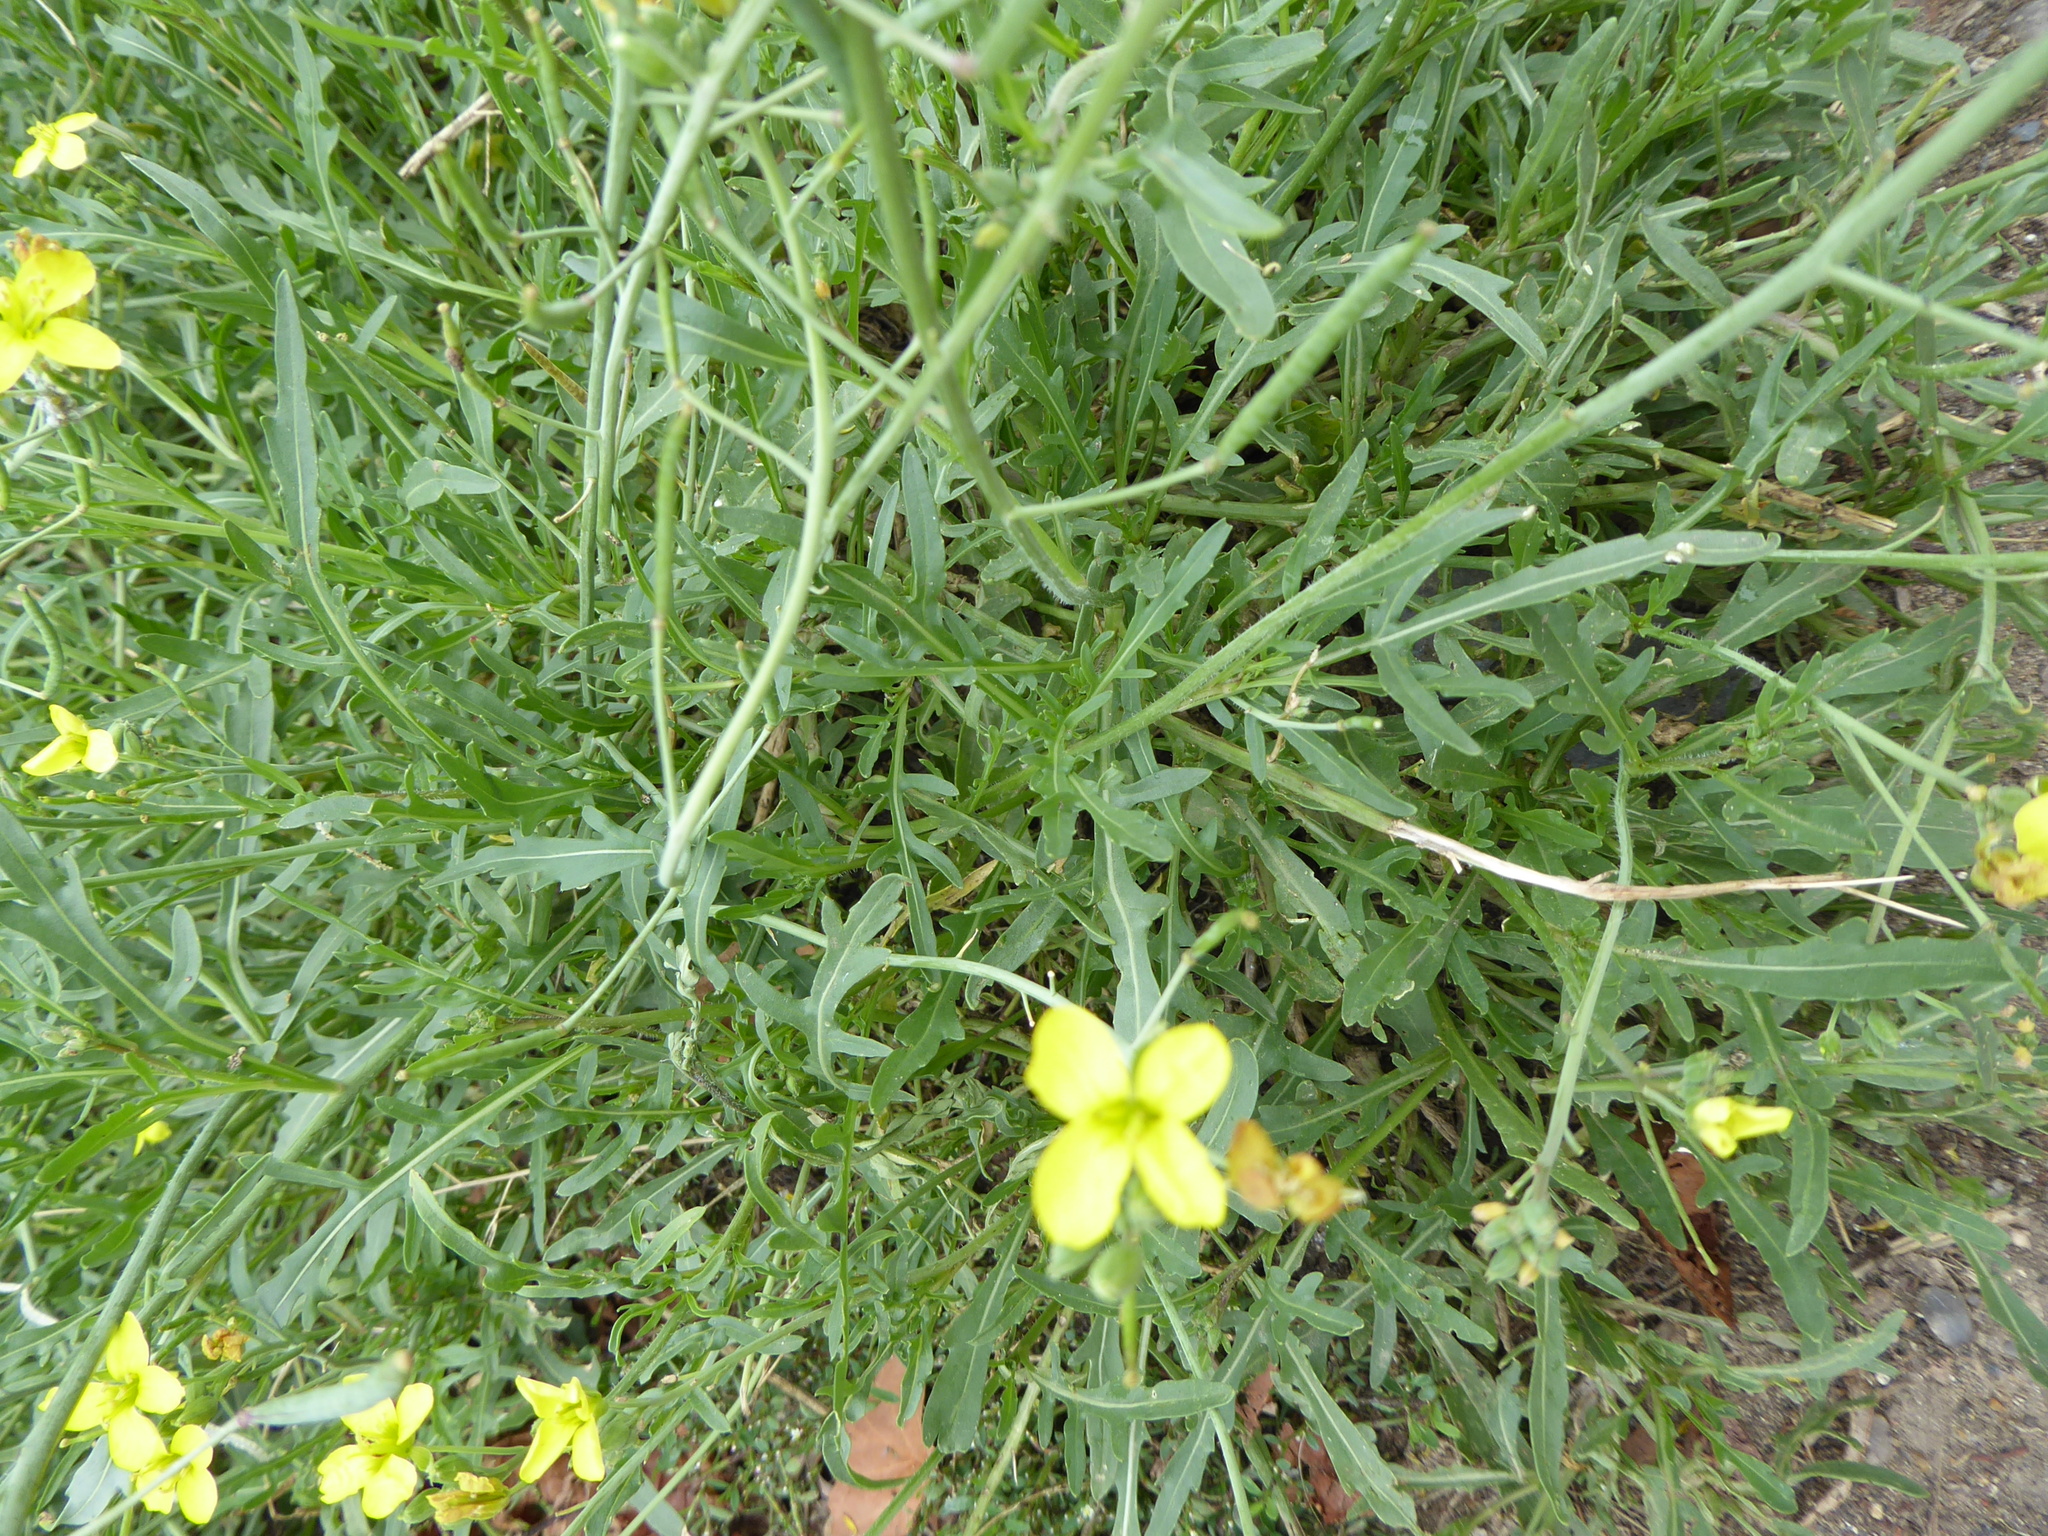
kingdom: Plantae
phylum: Tracheophyta
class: Magnoliopsida
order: Brassicales
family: Brassicaceae
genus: Diplotaxis
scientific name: Diplotaxis tenuifolia
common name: Perennial wall-rocket
